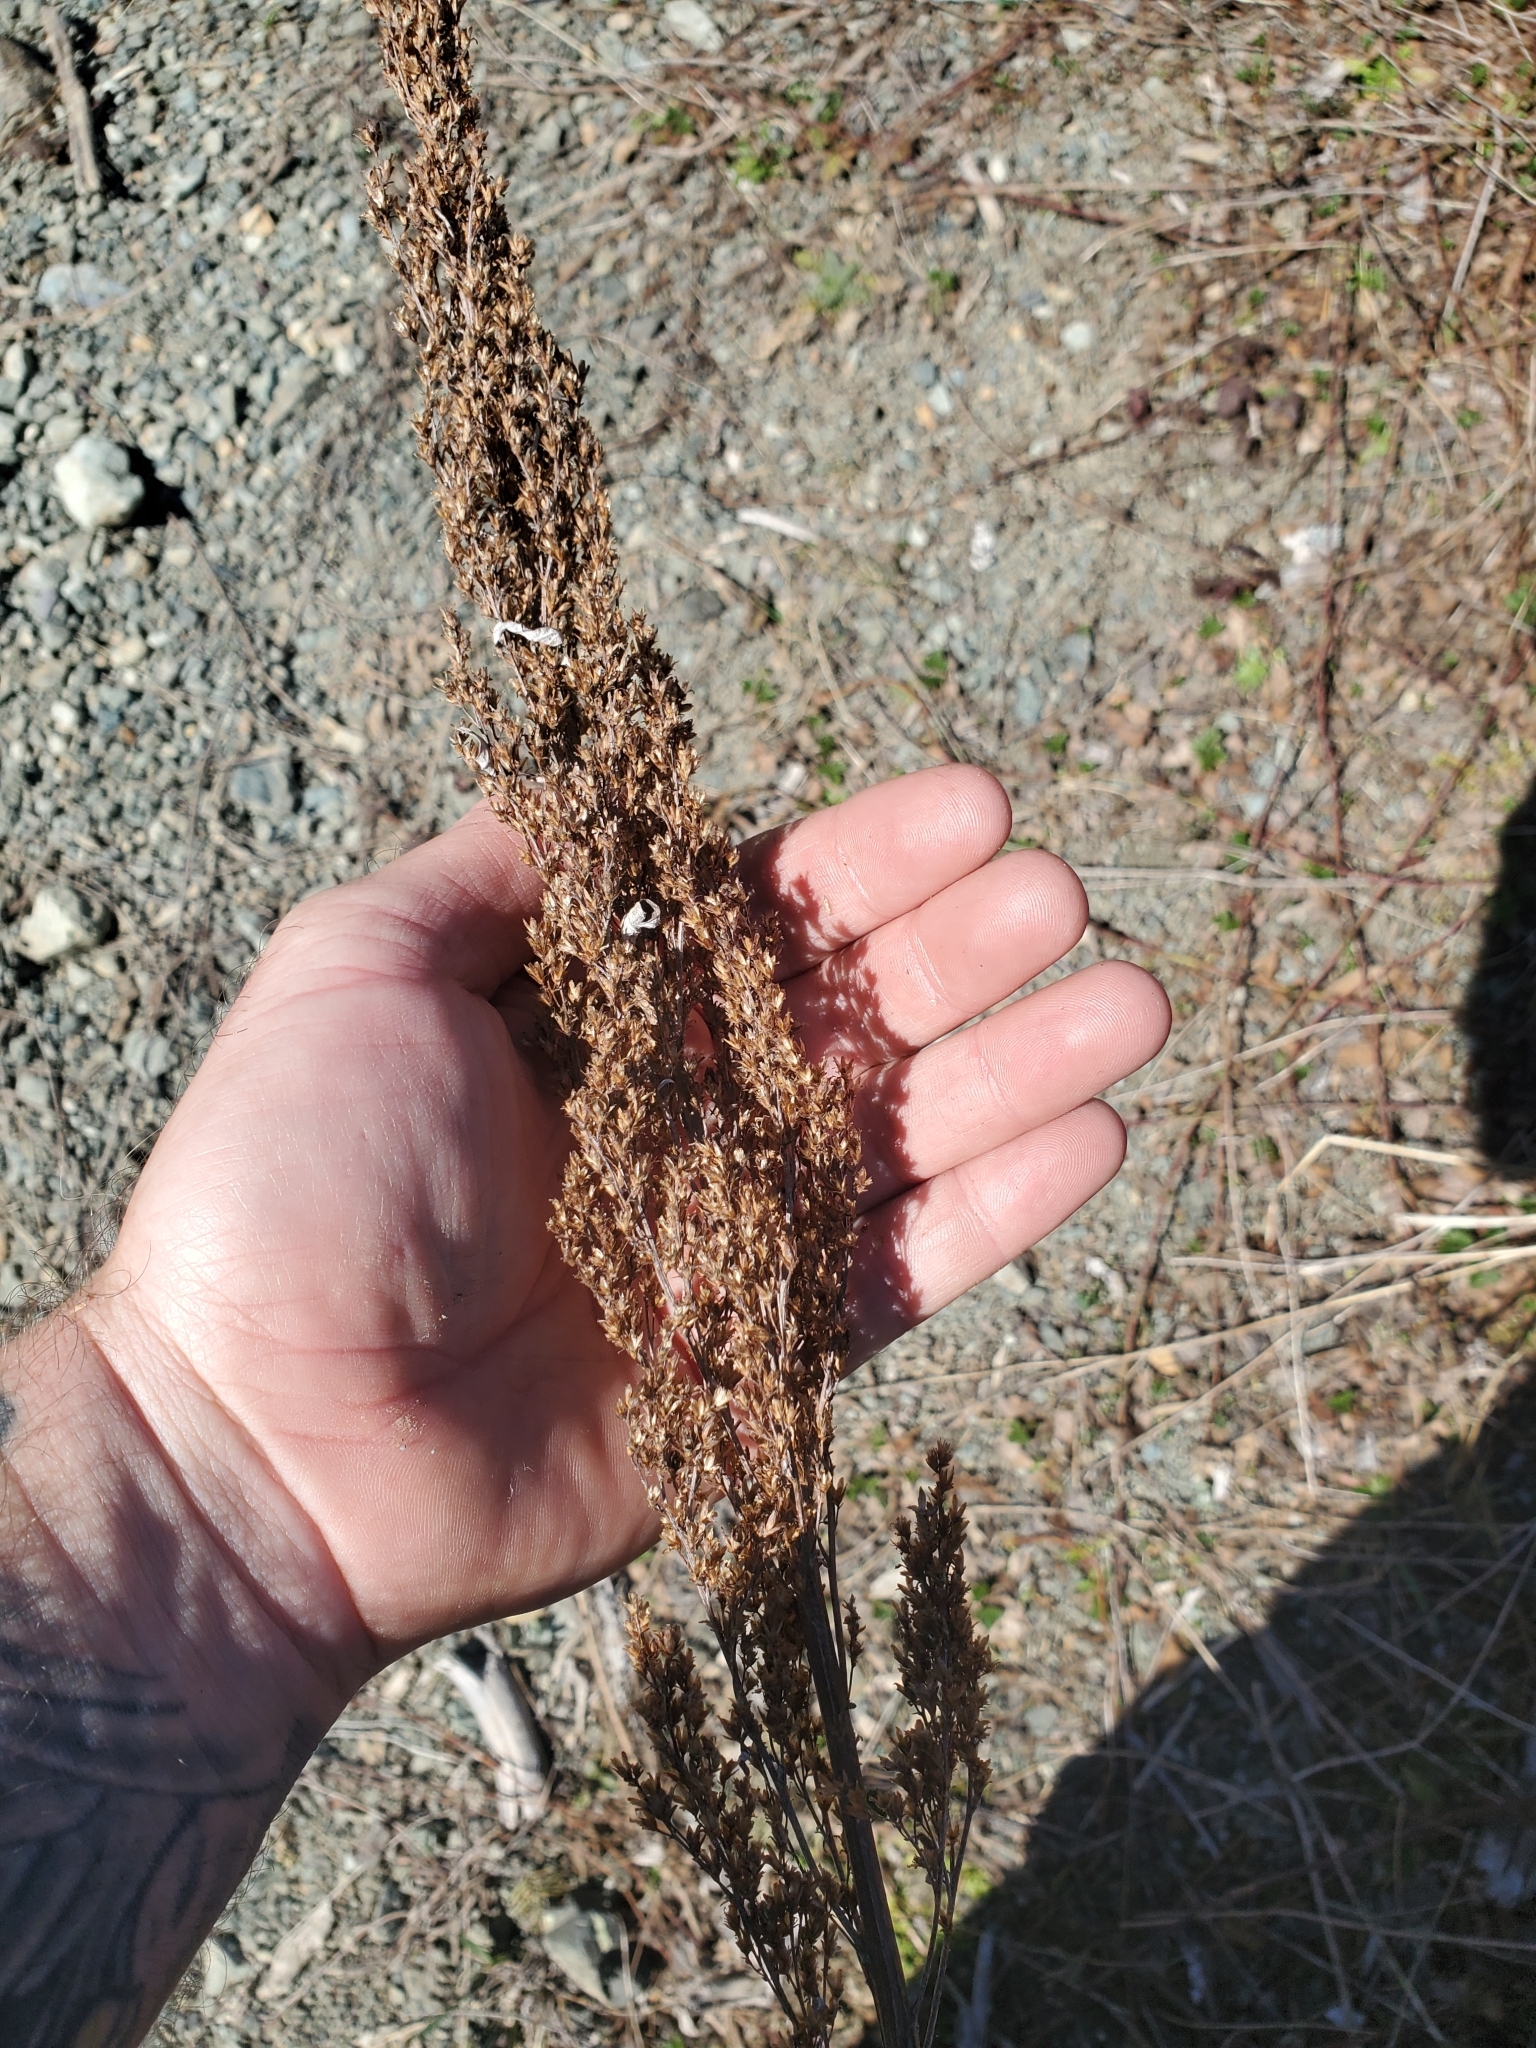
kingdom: Plantae
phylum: Tracheophyta
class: Magnoliopsida
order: Asterales
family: Asteraceae
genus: Artemisia
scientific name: Artemisia suksdorfii
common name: Suksdorf sagewort
